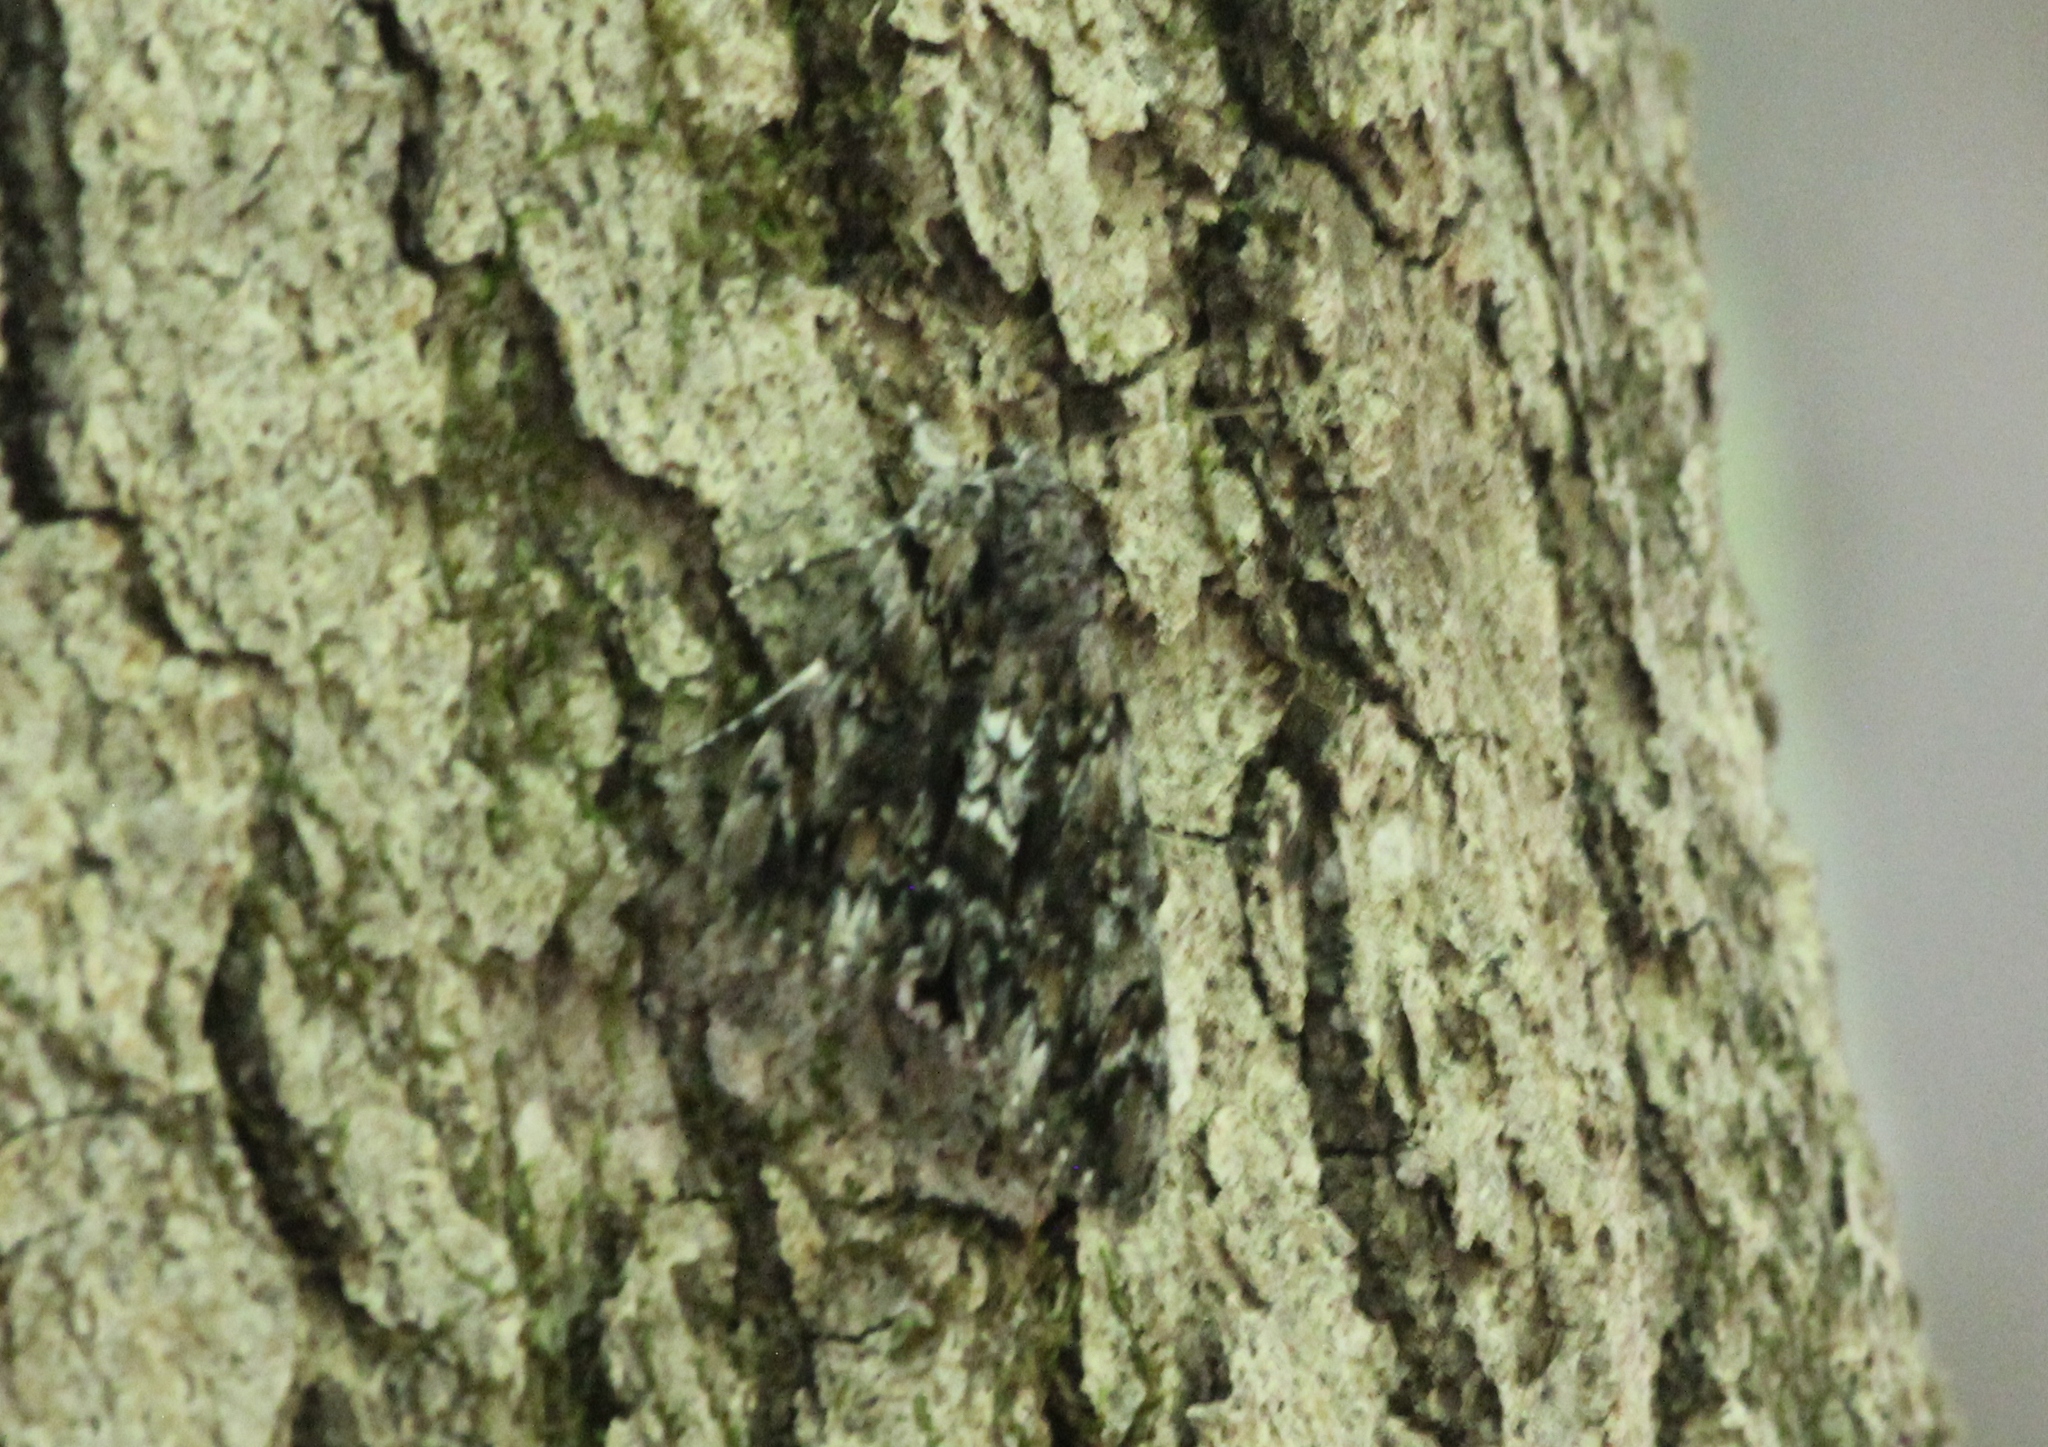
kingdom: Animalia
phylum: Arthropoda
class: Insecta
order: Lepidoptera
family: Erebidae
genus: Catocala
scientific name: Catocala lacrymosa
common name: Tearful underwing
